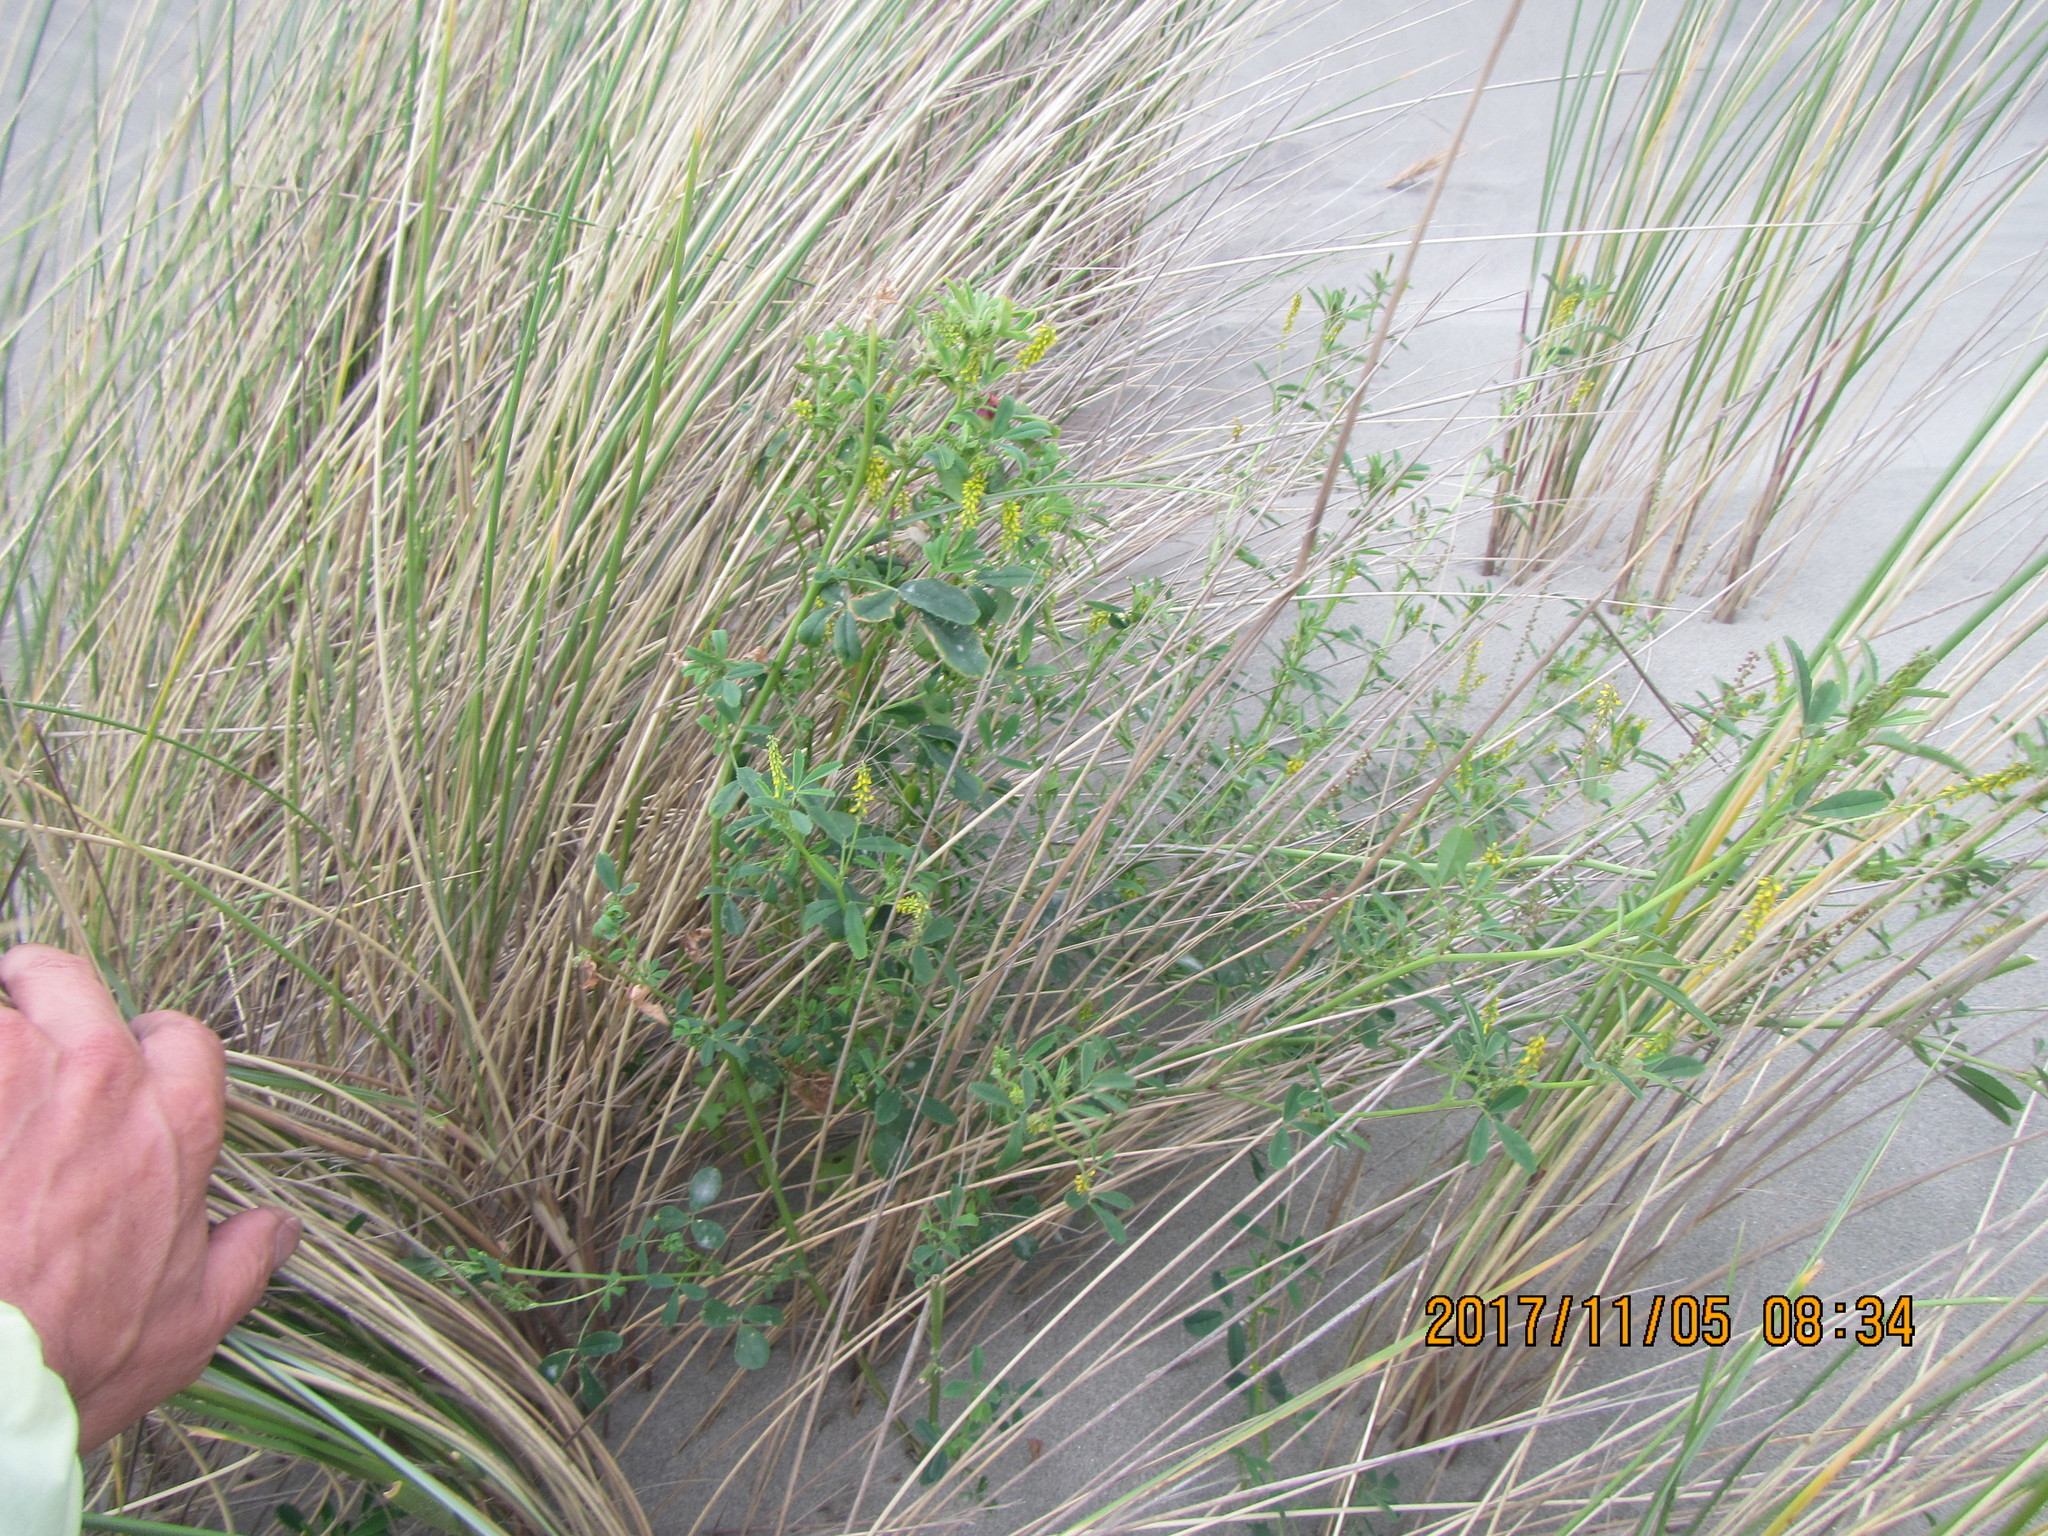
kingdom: Plantae
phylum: Tracheophyta
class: Magnoliopsida
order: Fabales
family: Fabaceae
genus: Melilotus
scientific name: Melilotus indicus
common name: Small melilot
